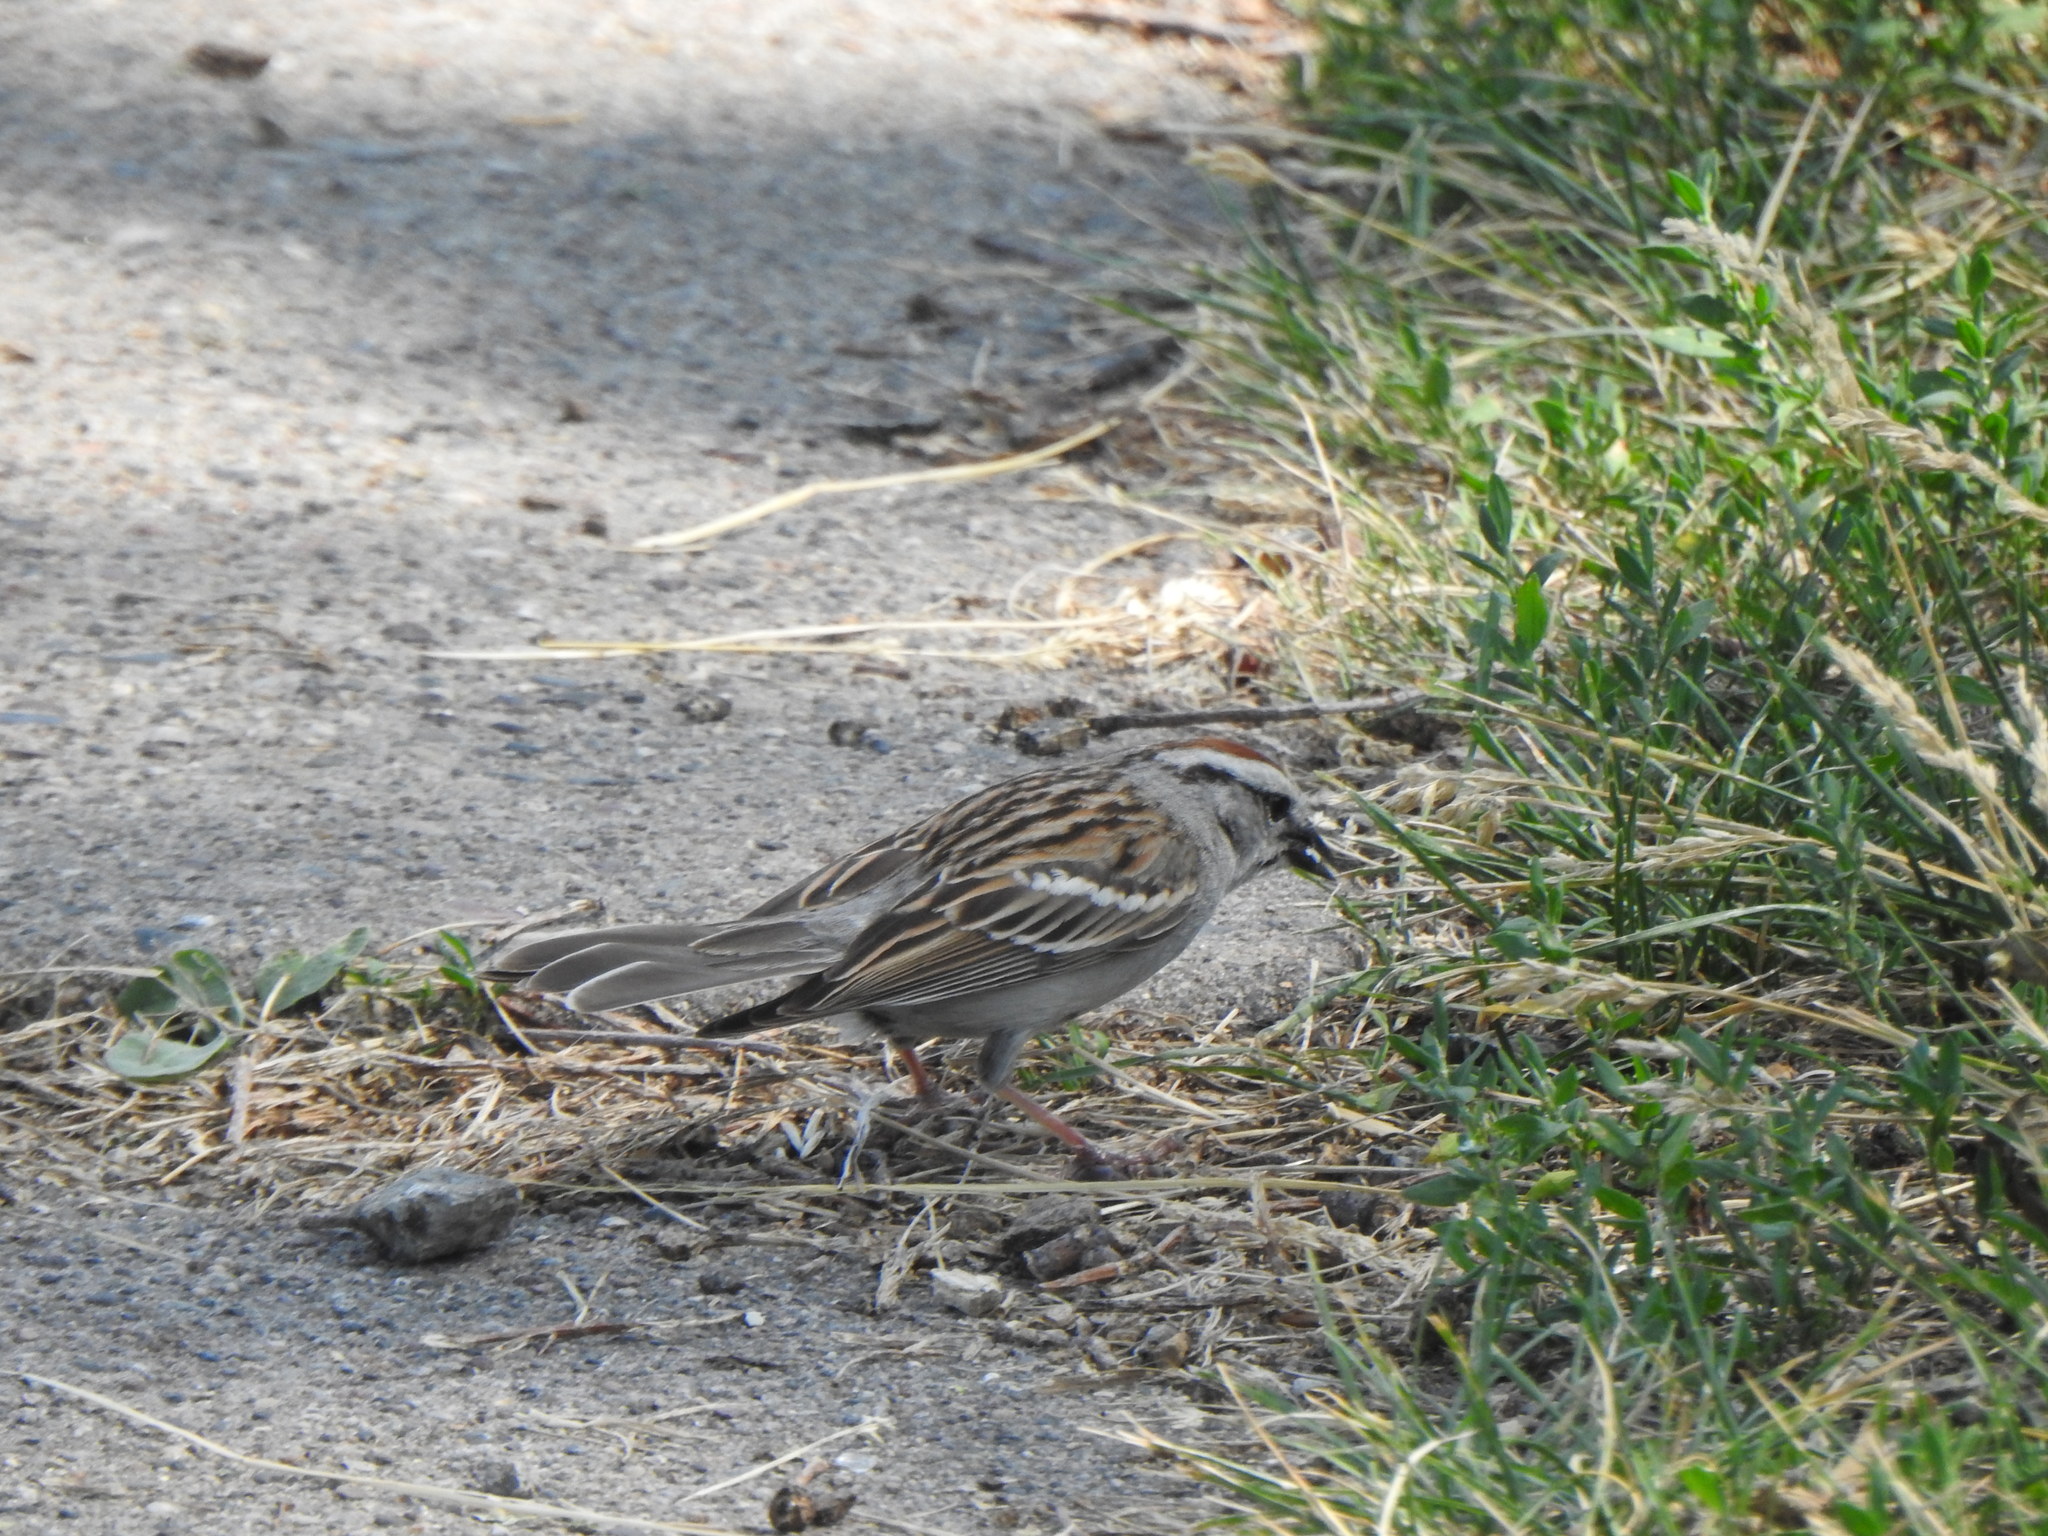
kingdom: Animalia
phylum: Chordata
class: Aves
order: Passeriformes
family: Passerellidae
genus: Spizella
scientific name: Spizella passerina
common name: Chipping sparrow
